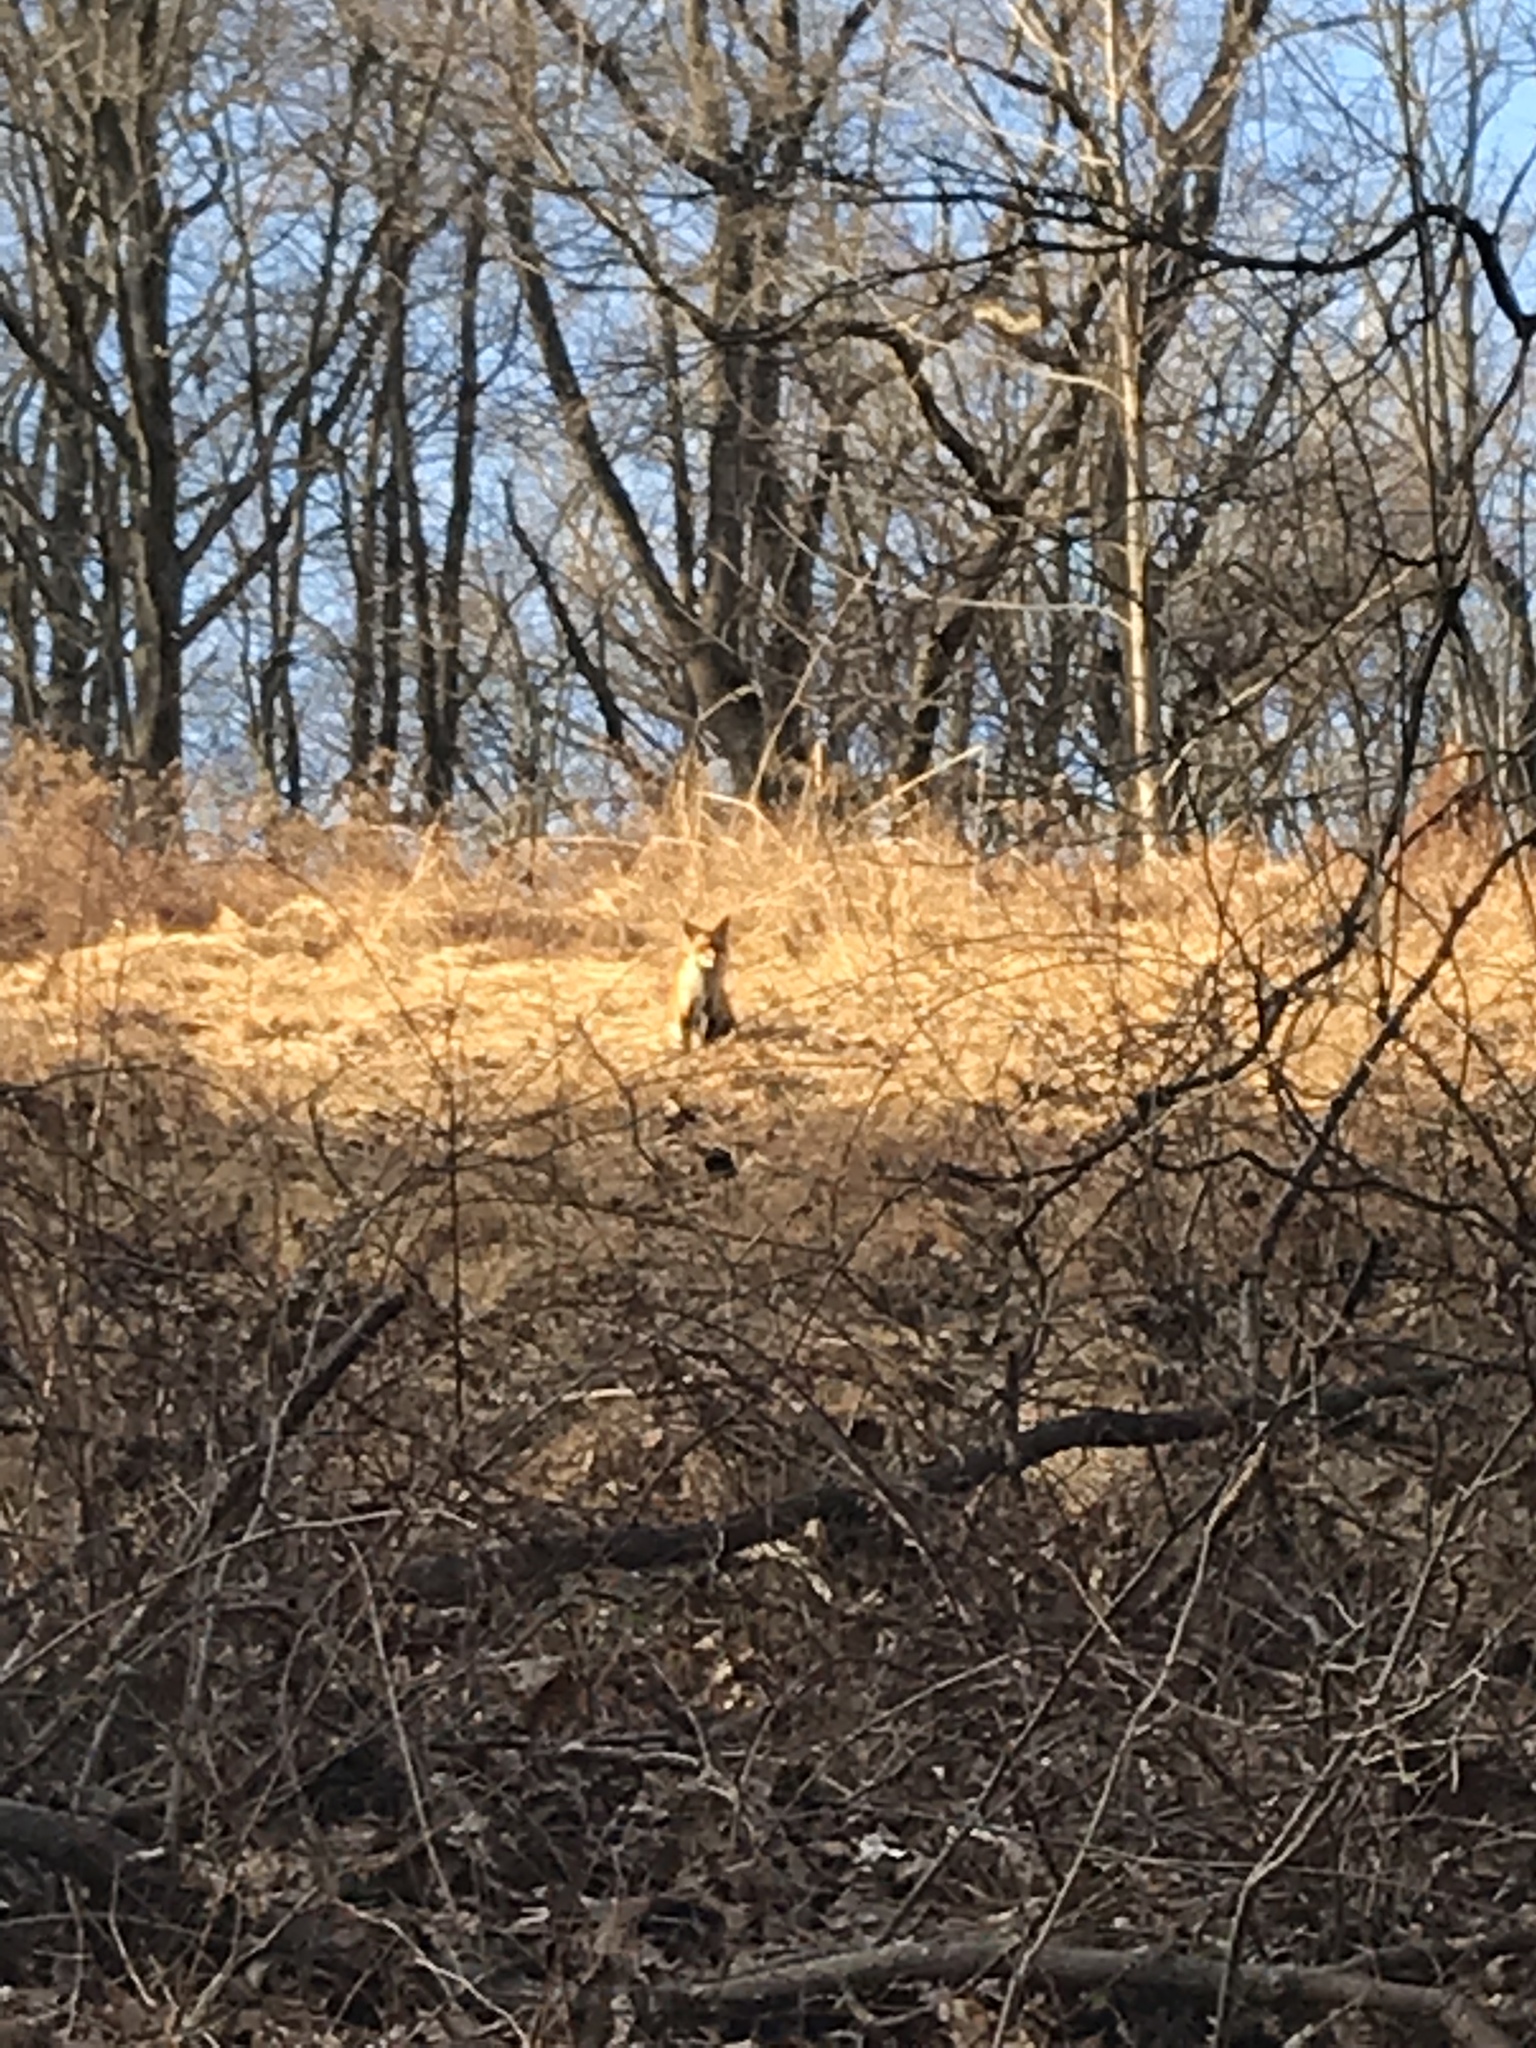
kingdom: Animalia
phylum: Chordata
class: Mammalia
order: Carnivora
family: Canidae
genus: Vulpes
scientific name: Vulpes vulpes
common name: Red fox
